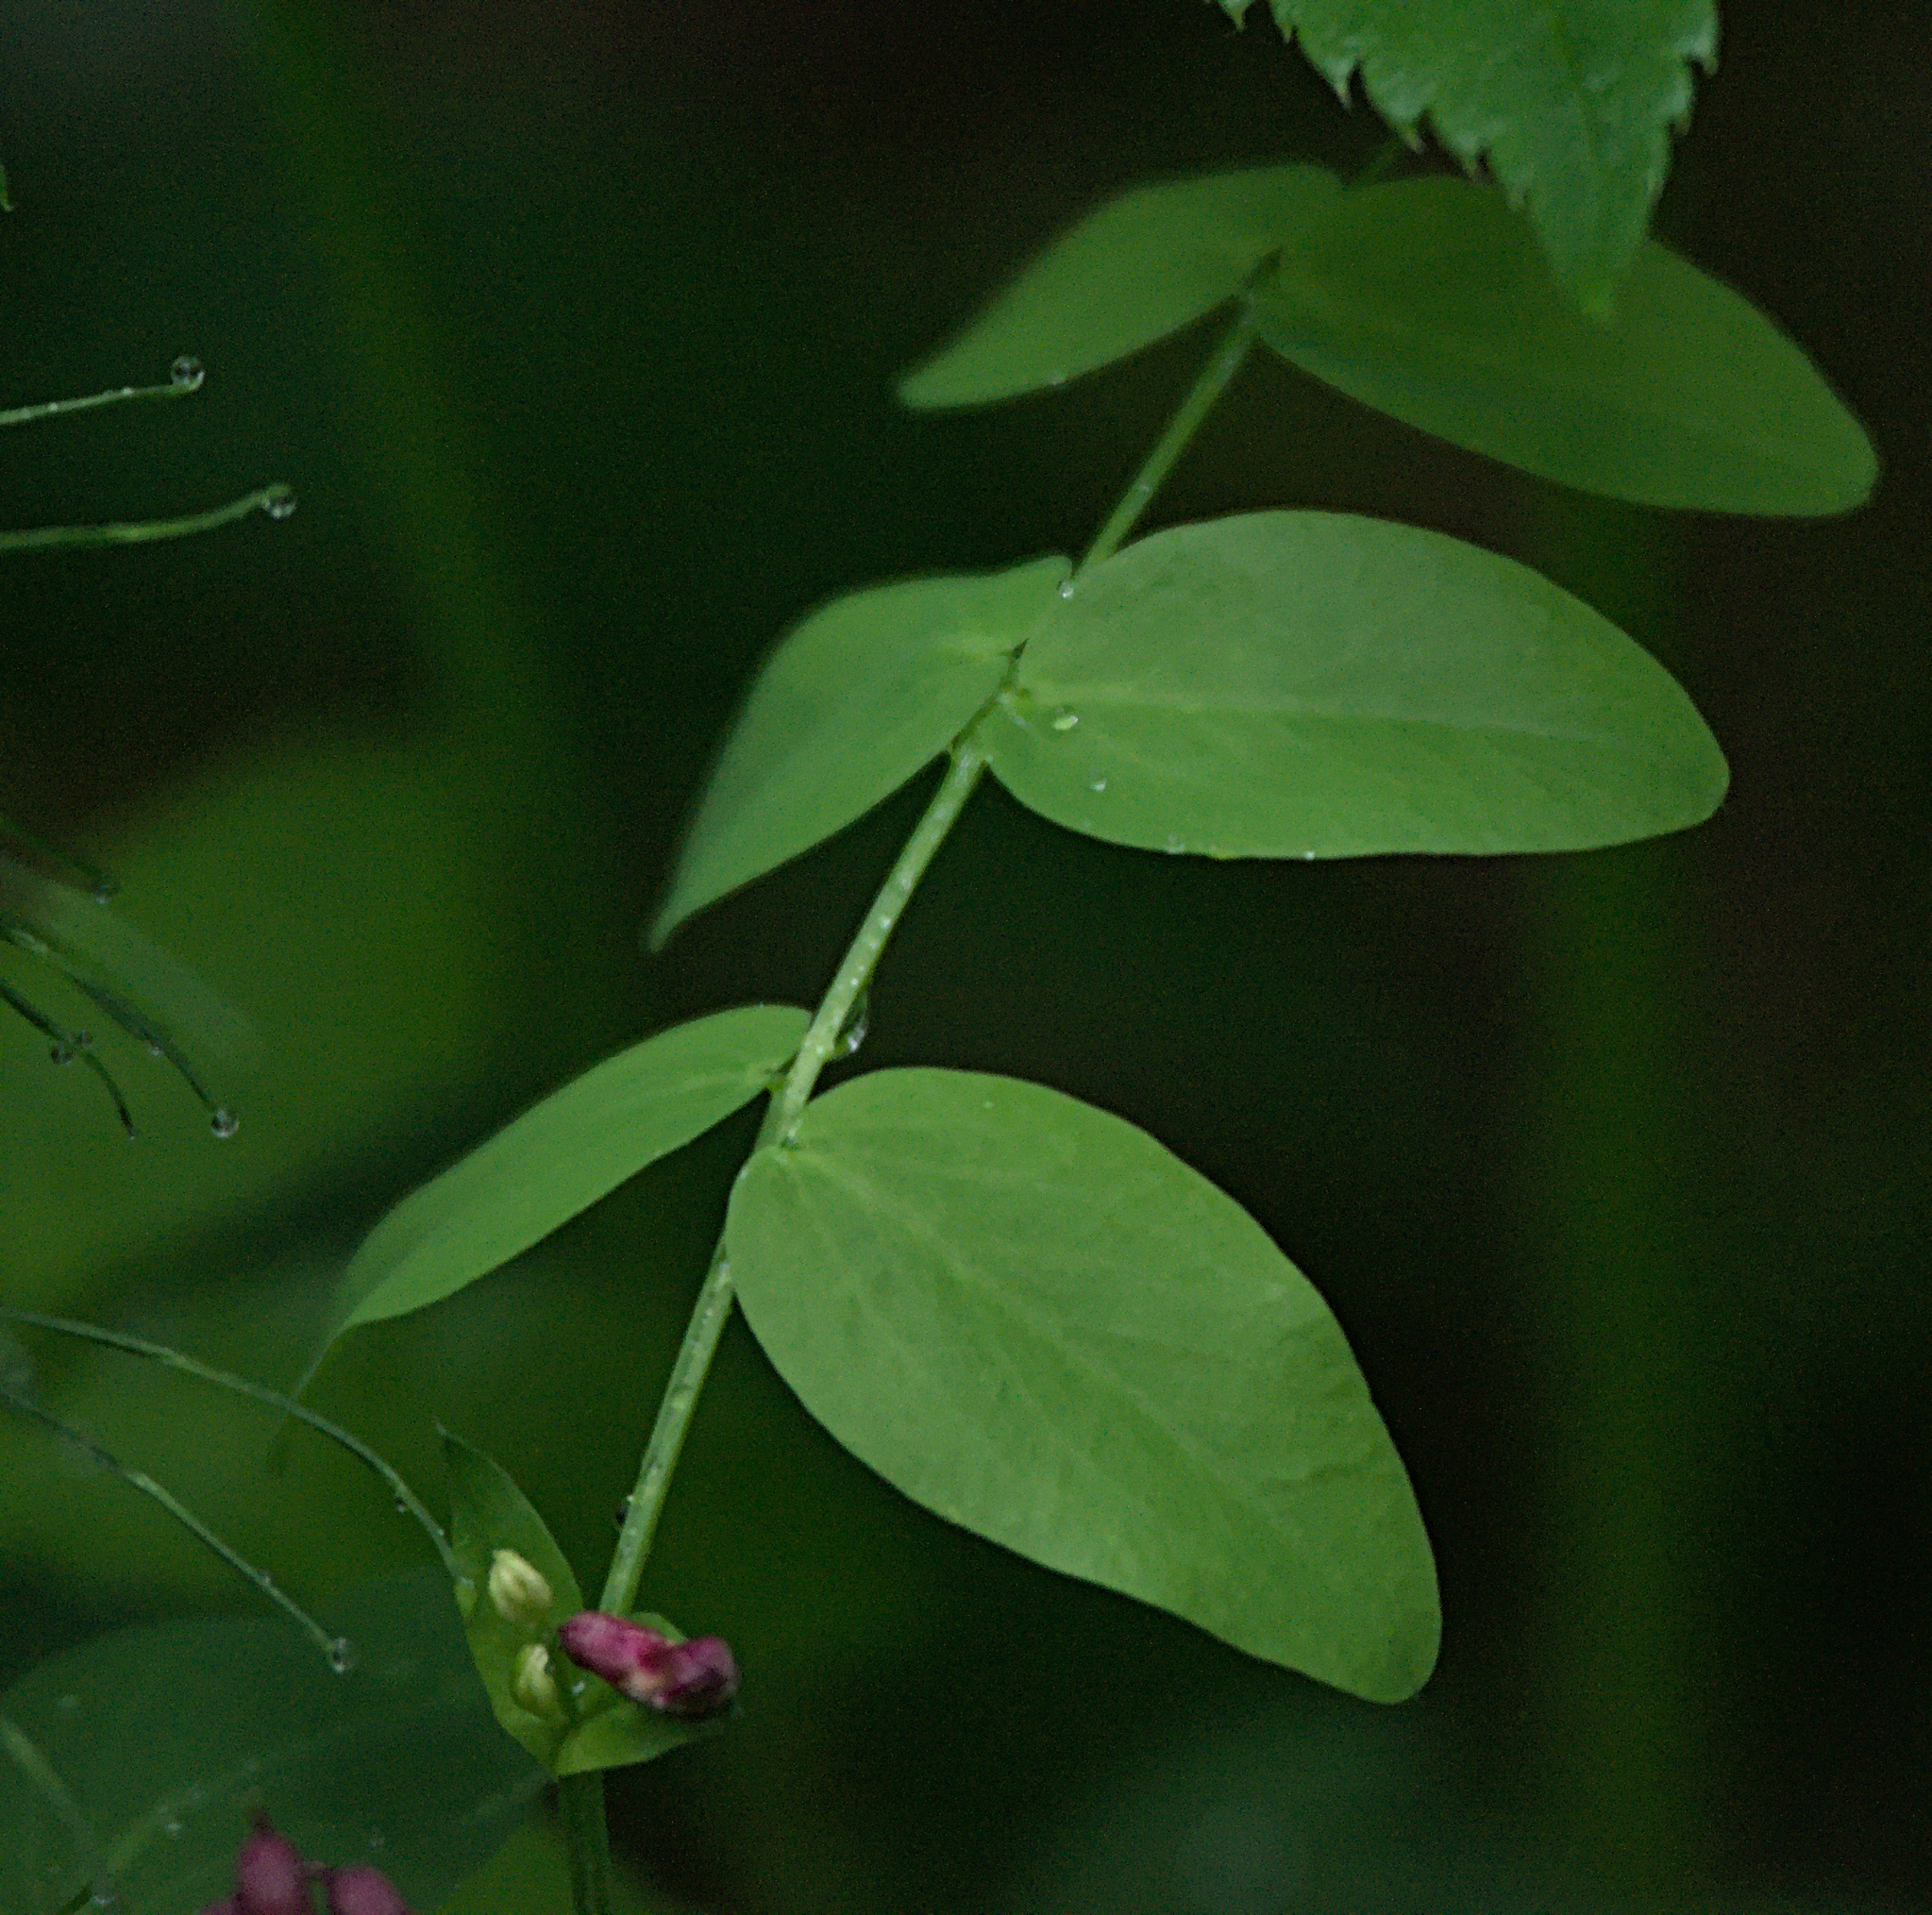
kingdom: Plantae
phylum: Tracheophyta
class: Magnoliopsida
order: Fabales
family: Fabaceae
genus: Lathyrus
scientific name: Lathyrus pisiformis
